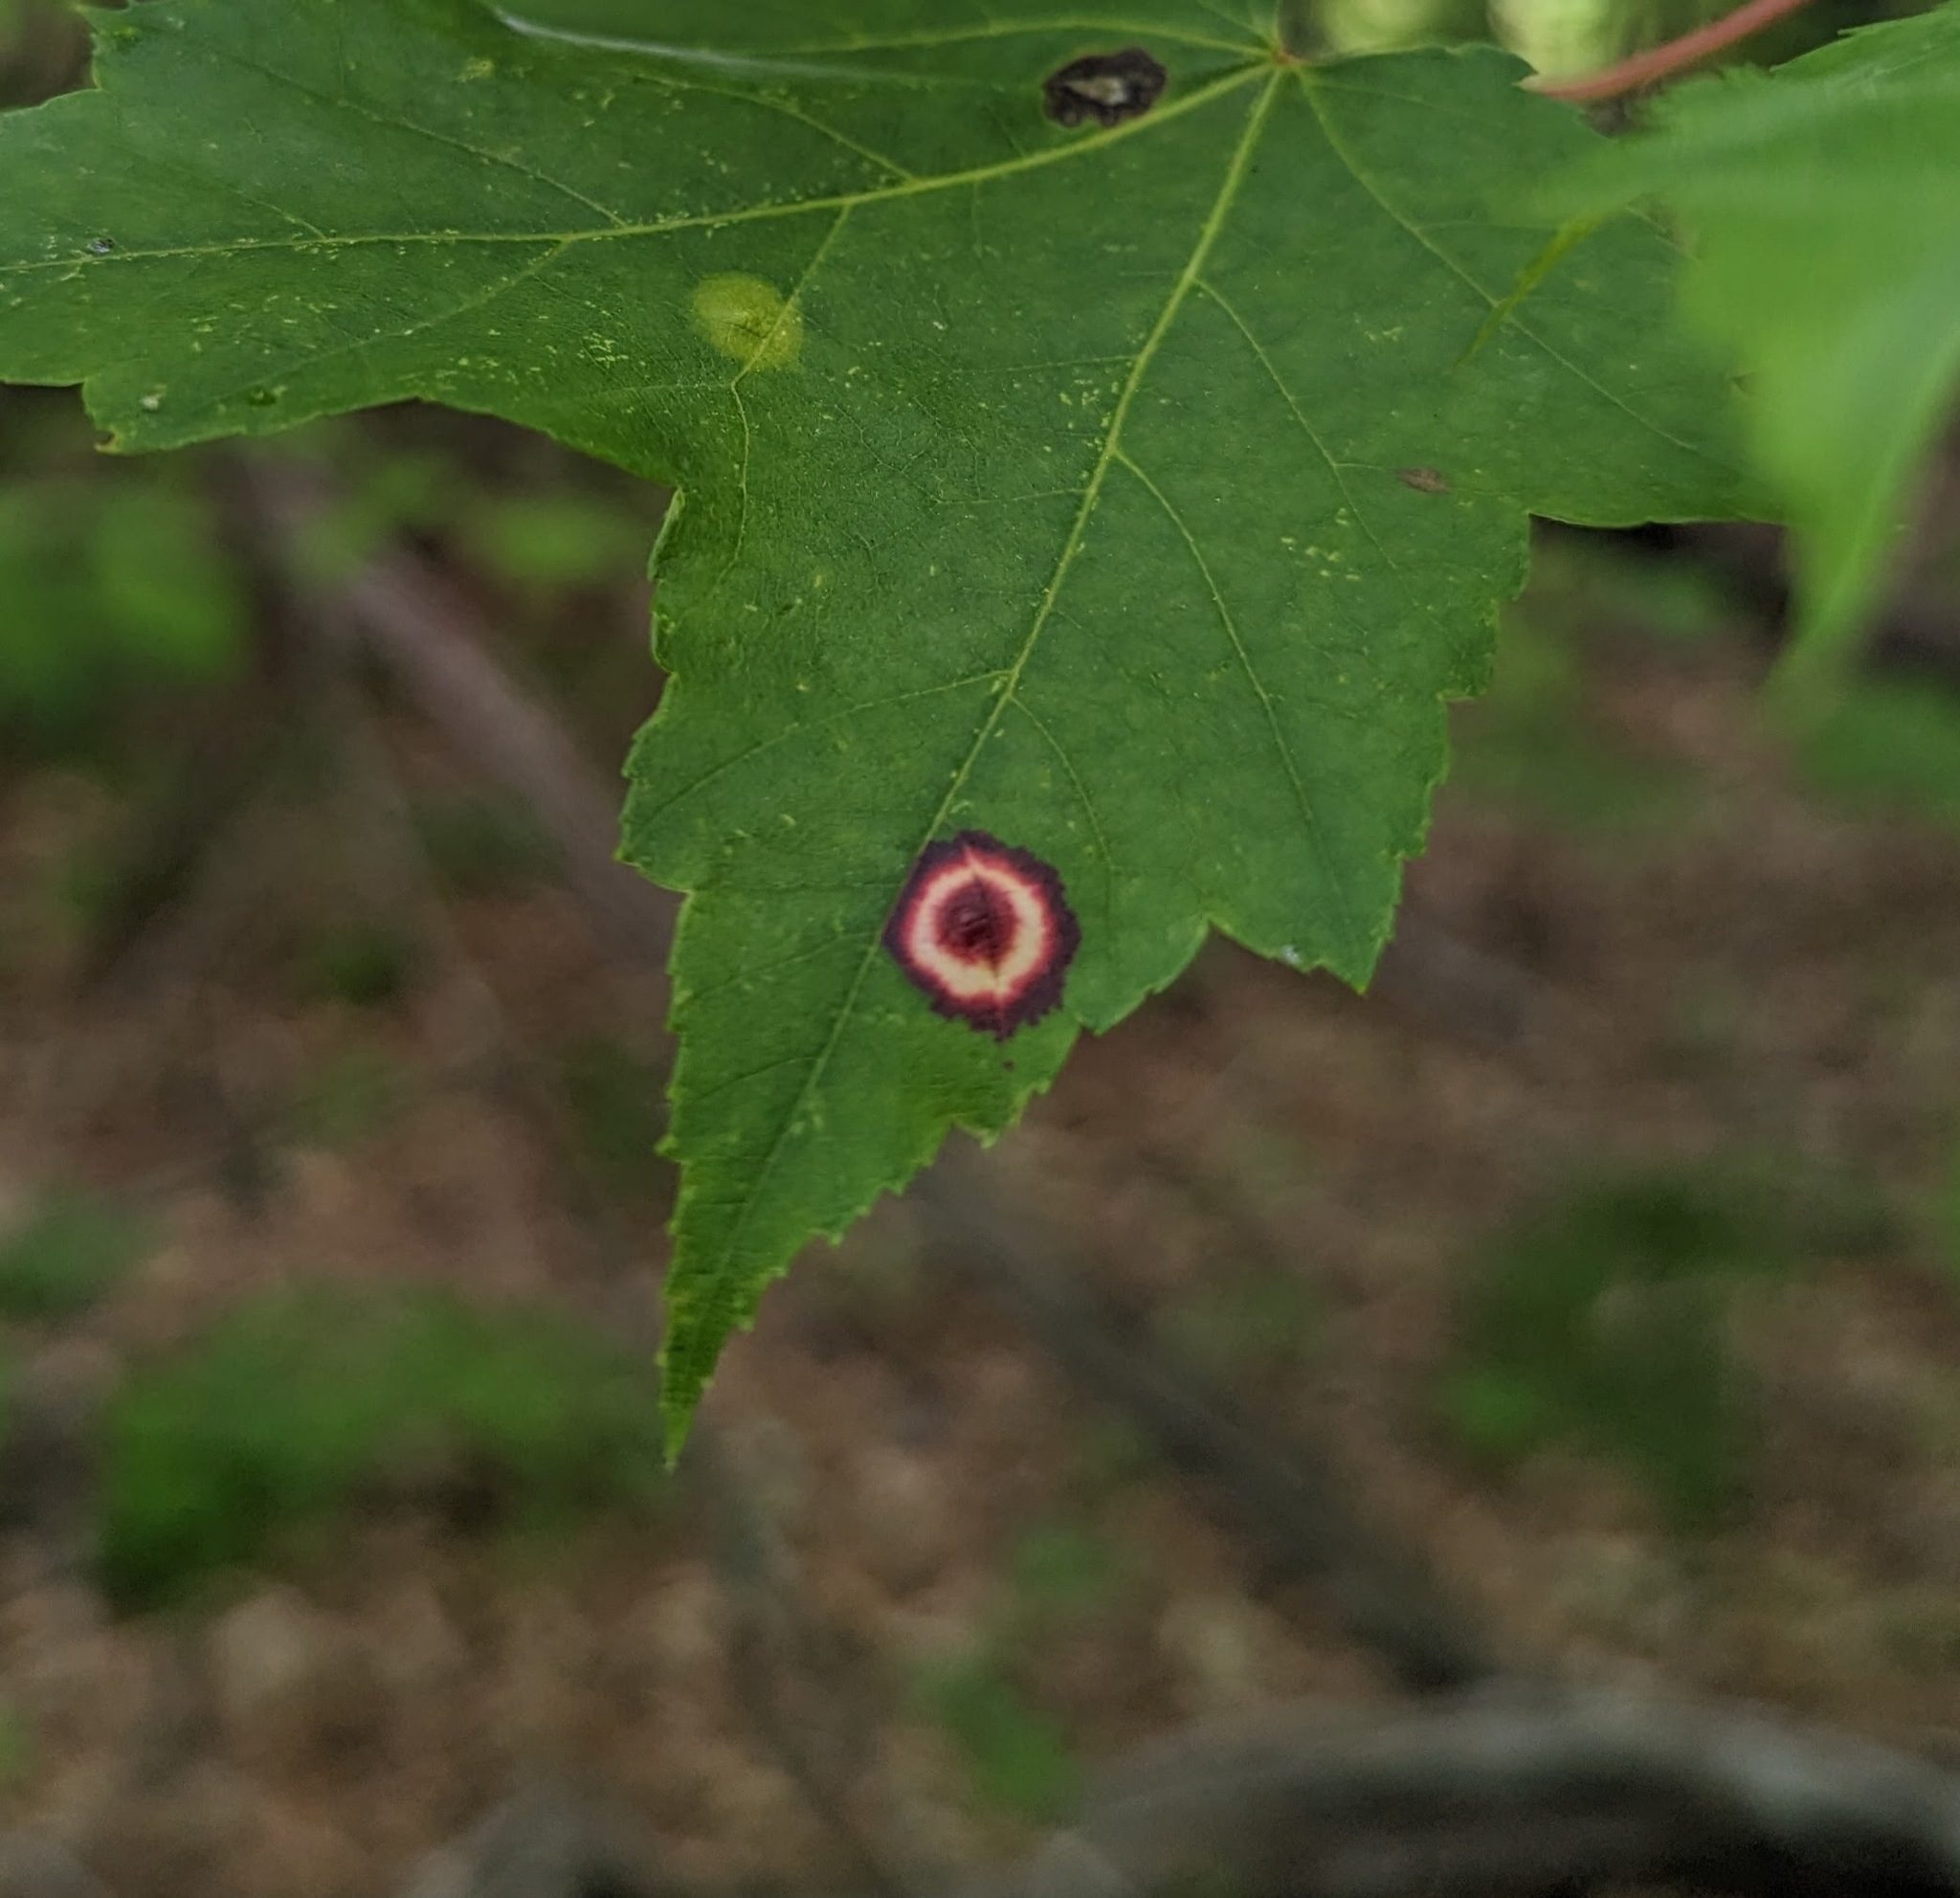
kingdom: Animalia
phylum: Arthropoda
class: Insecta
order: Diptera
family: Cecidomyiidae
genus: Acericecis
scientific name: Acericecis ocellaris
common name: Ocellate gall midge
